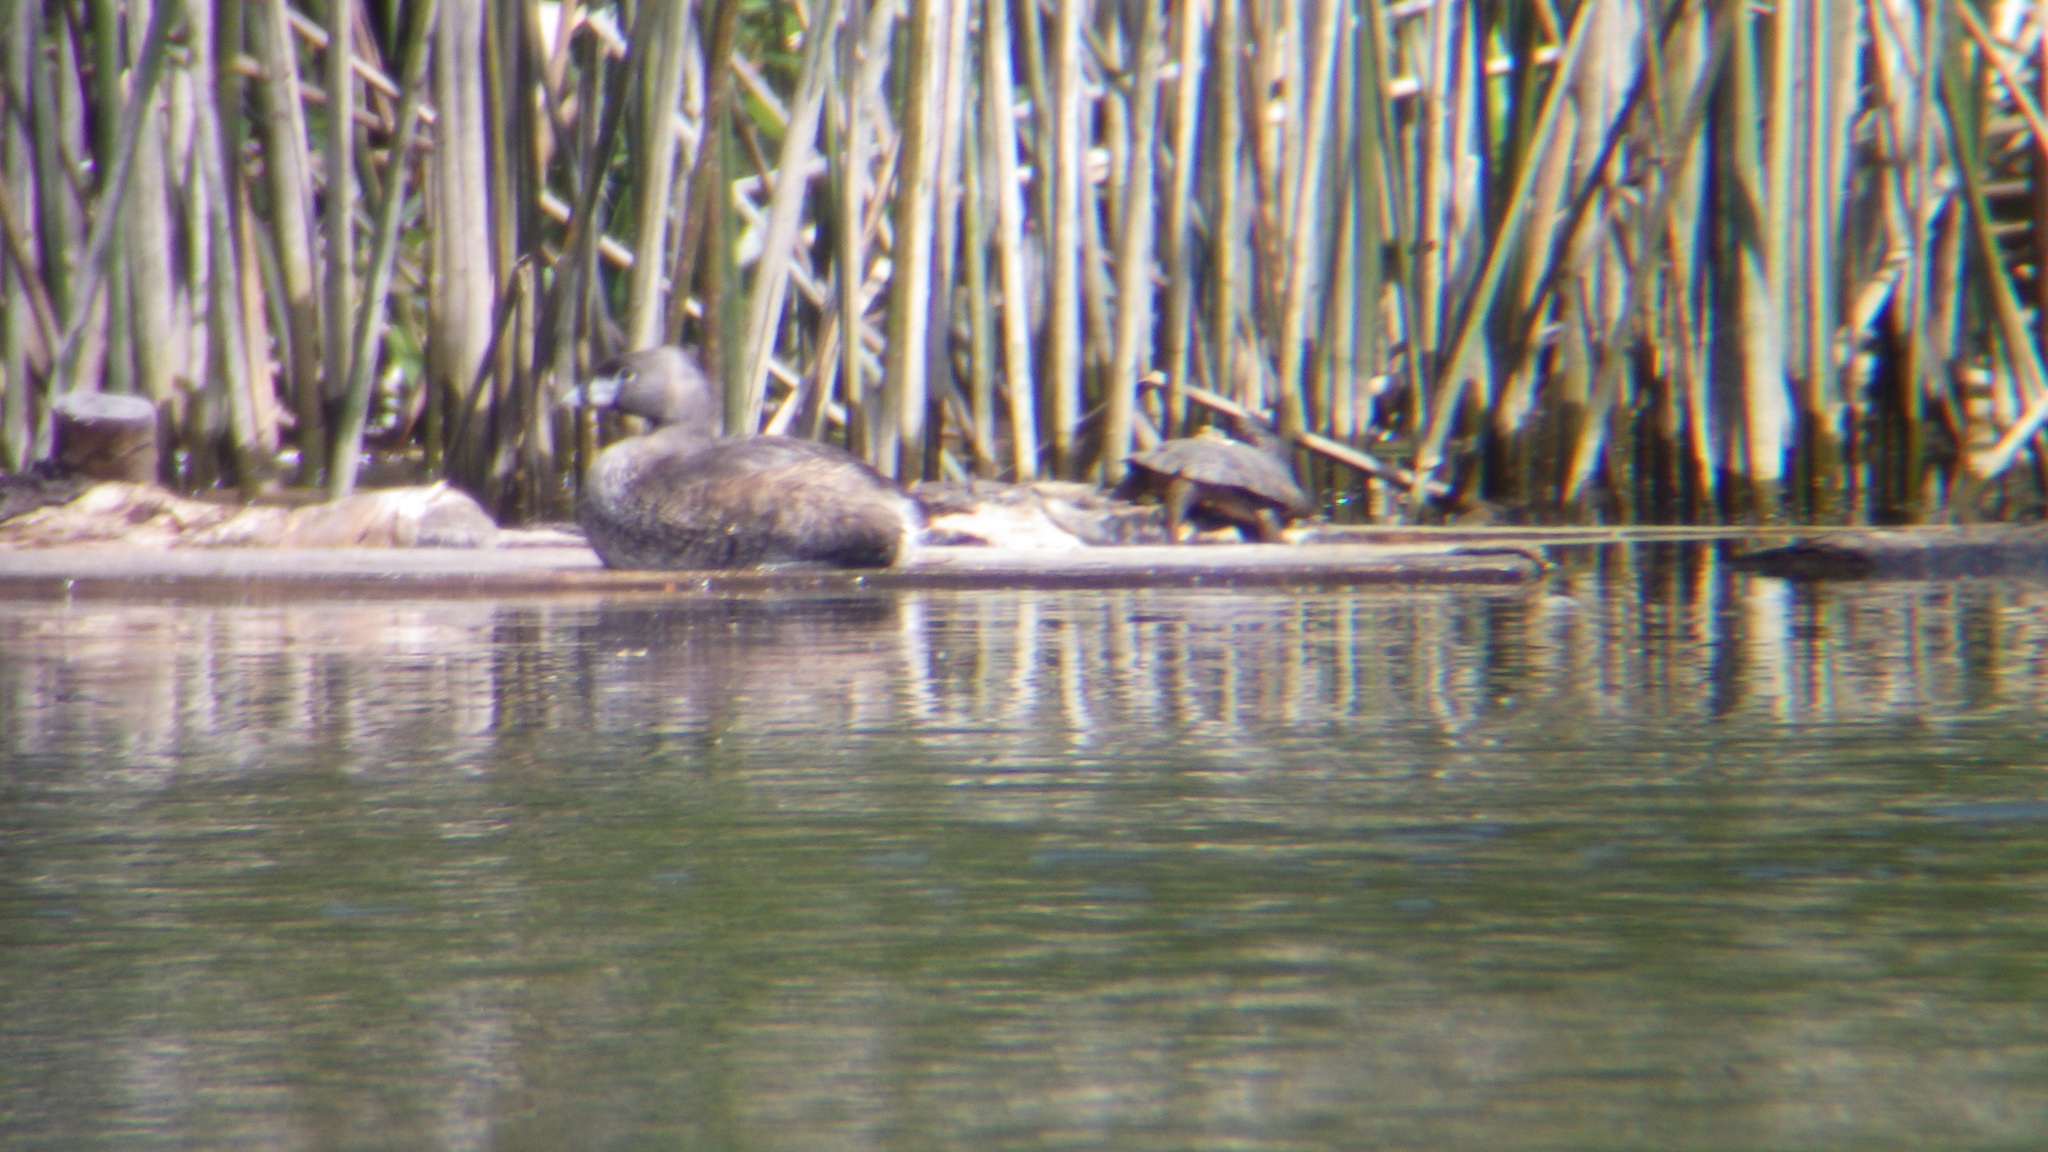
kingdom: Animalia
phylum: Chordata
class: Testudines
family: Emydidae
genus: Actinemys
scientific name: Actinemys marmorata
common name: Western pond turtle
